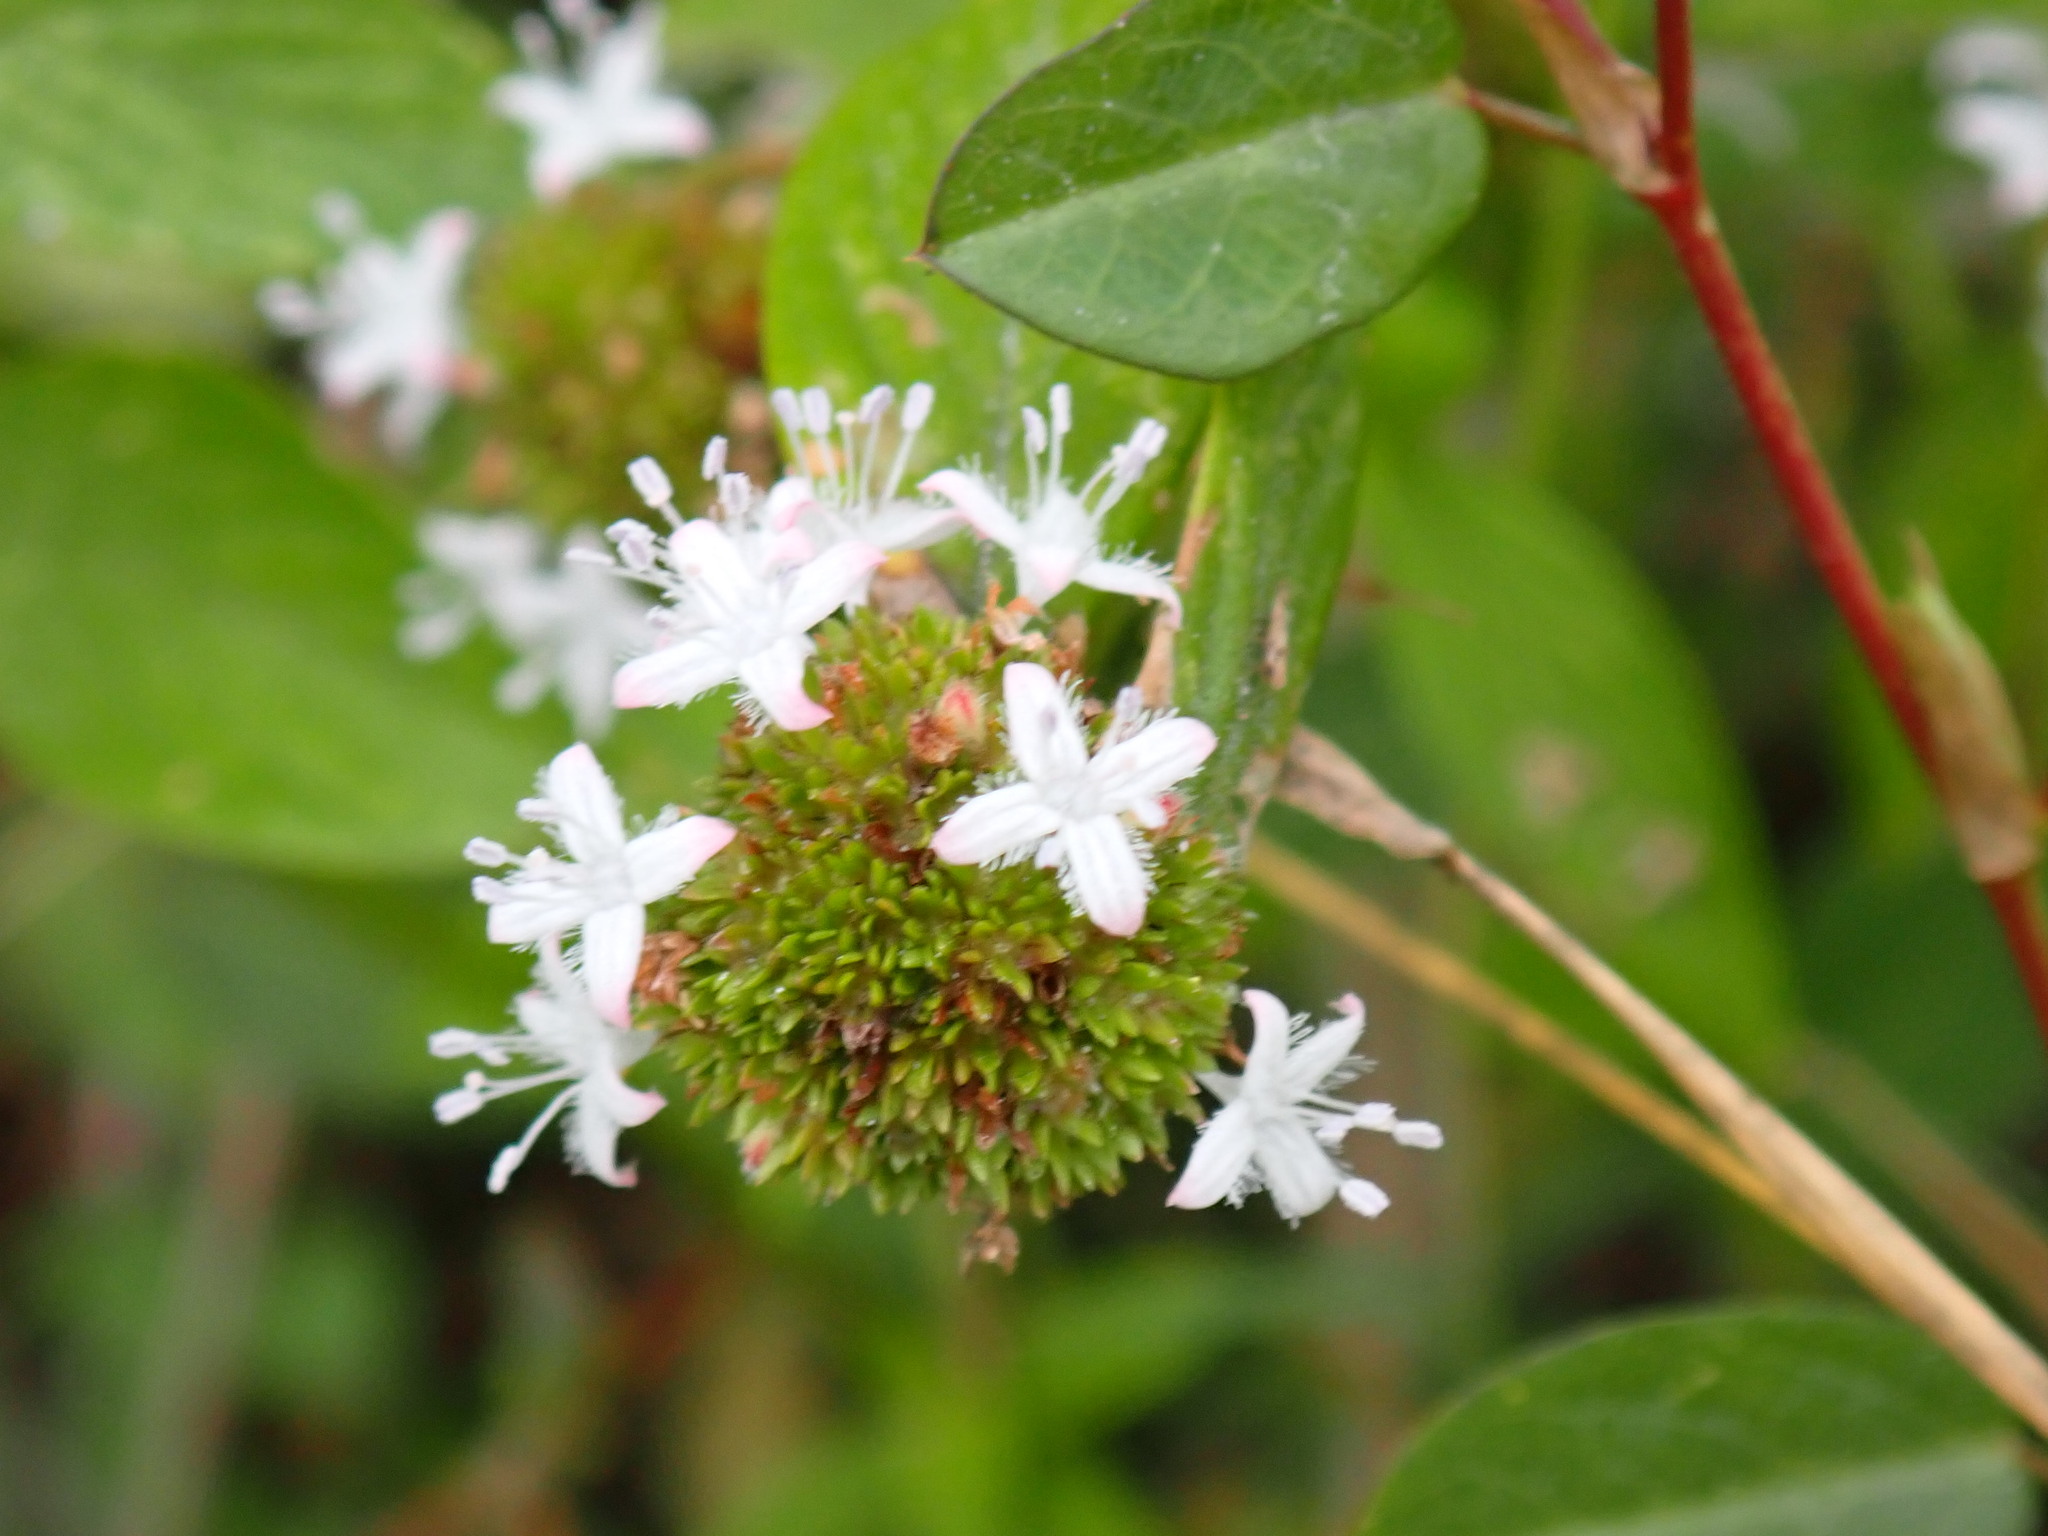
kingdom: Plantae
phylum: Tracheophyta
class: Magnoliopsida
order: Gentianales
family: Rubiaceae
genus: Spermacoce
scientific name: Spermacoce remota
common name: Woodland false buttonweed
